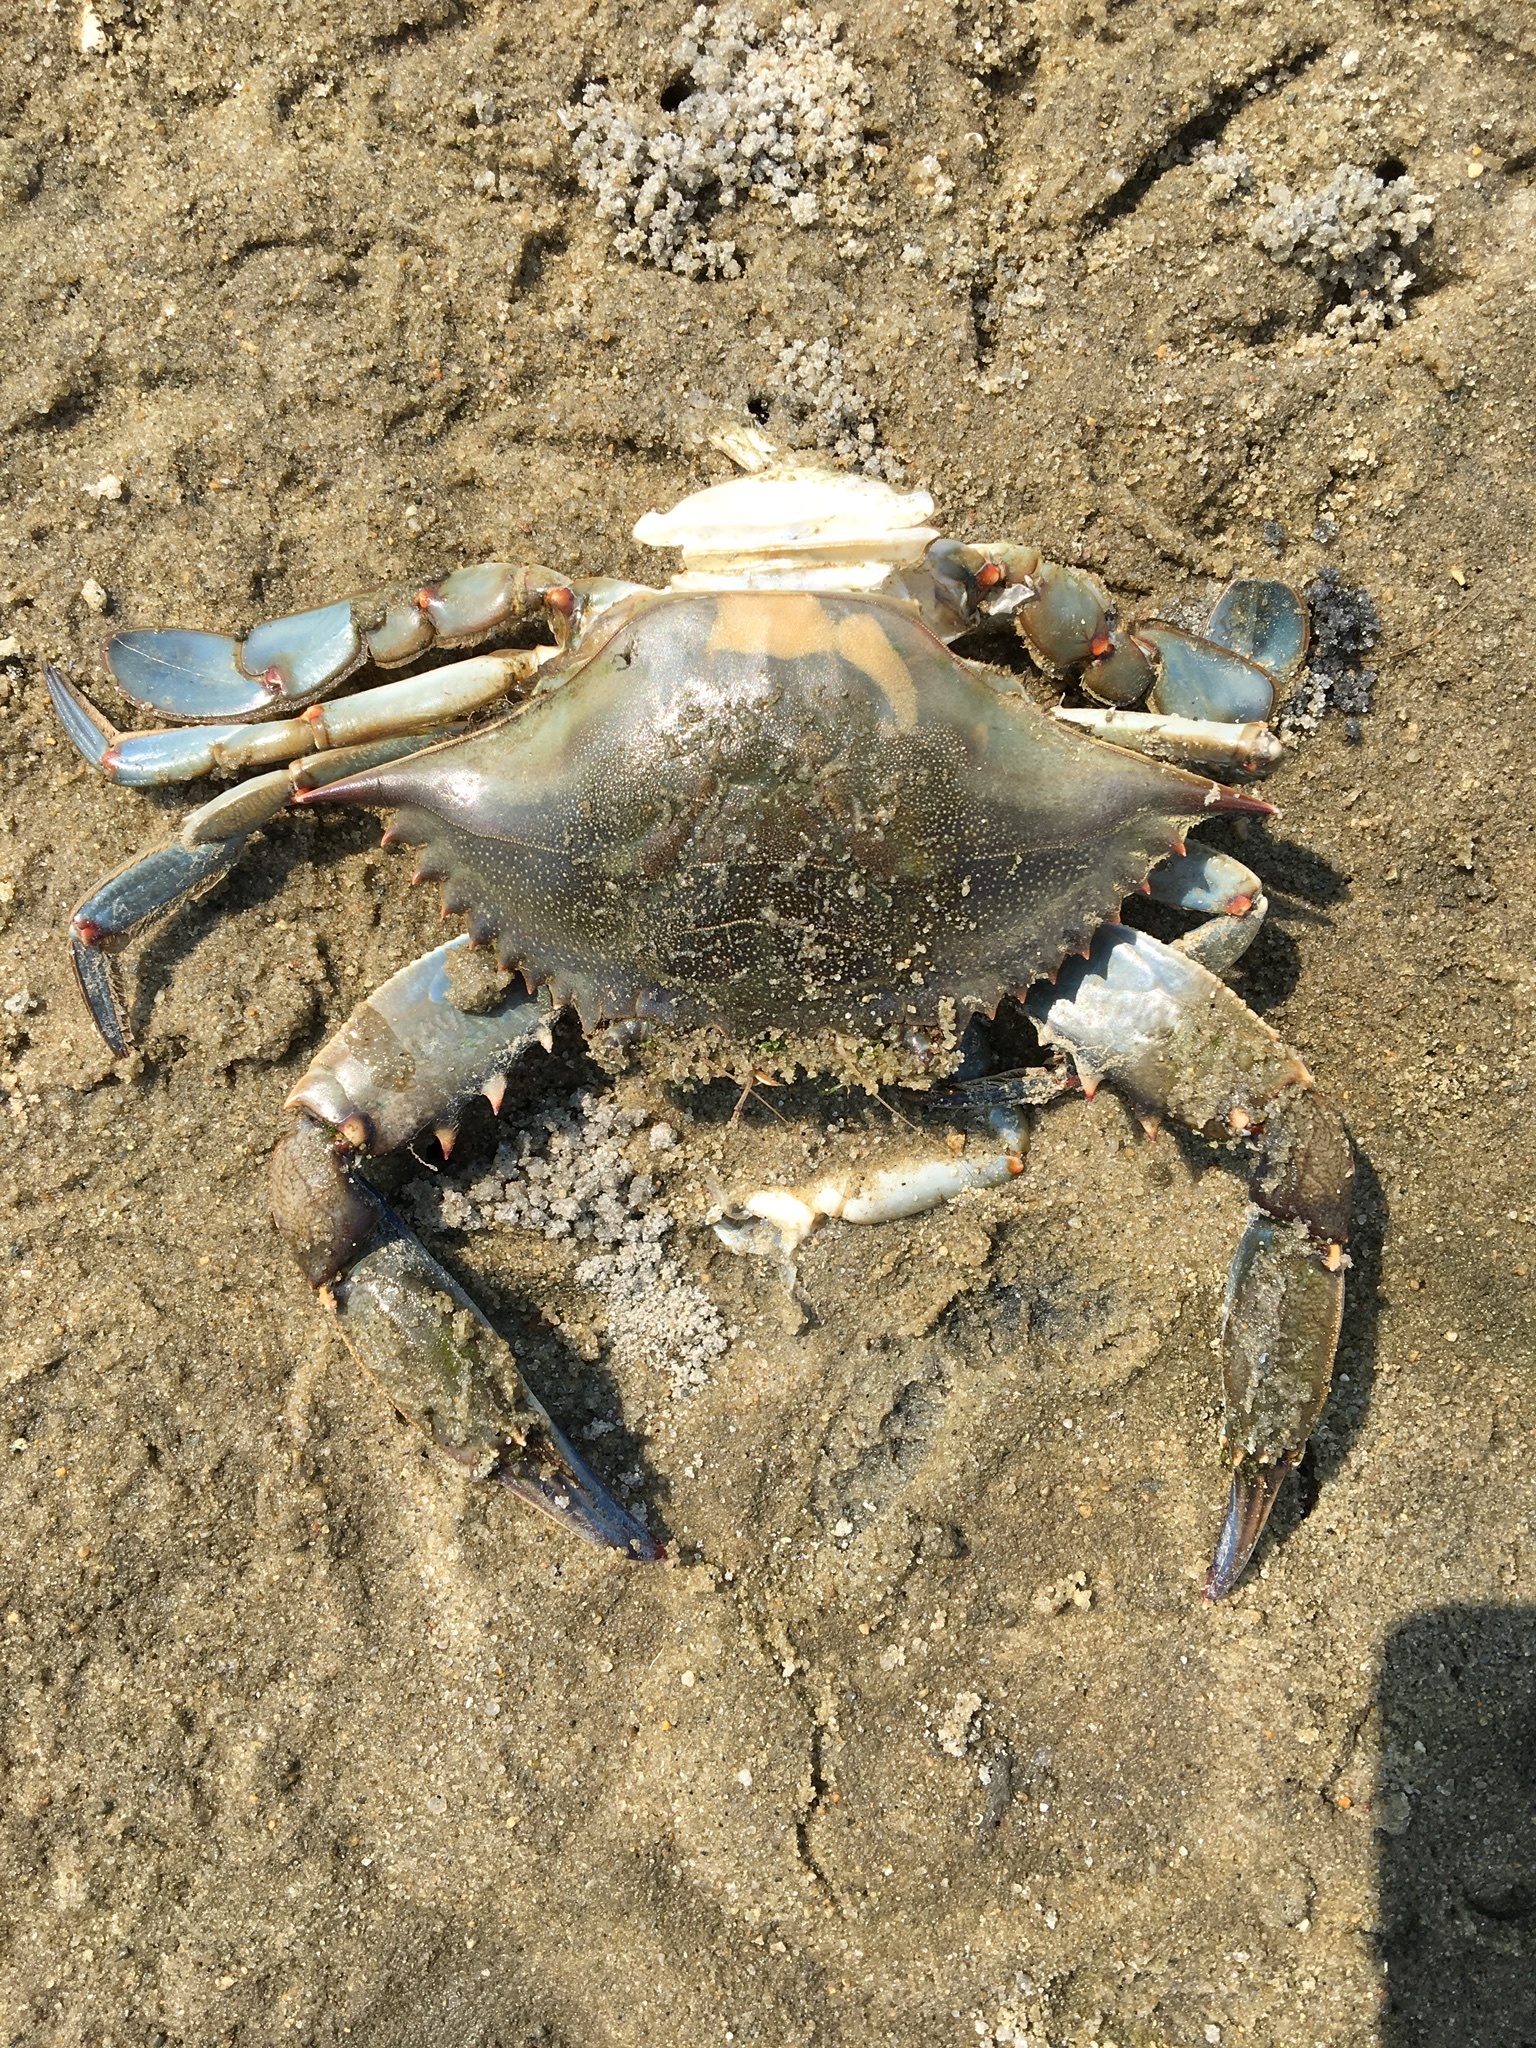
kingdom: Animalia
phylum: Arthropoda
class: Malacostraca
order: Decapoda
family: Portunidae
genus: Callinectes
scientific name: Callinectes sapidus
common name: Blue crab
